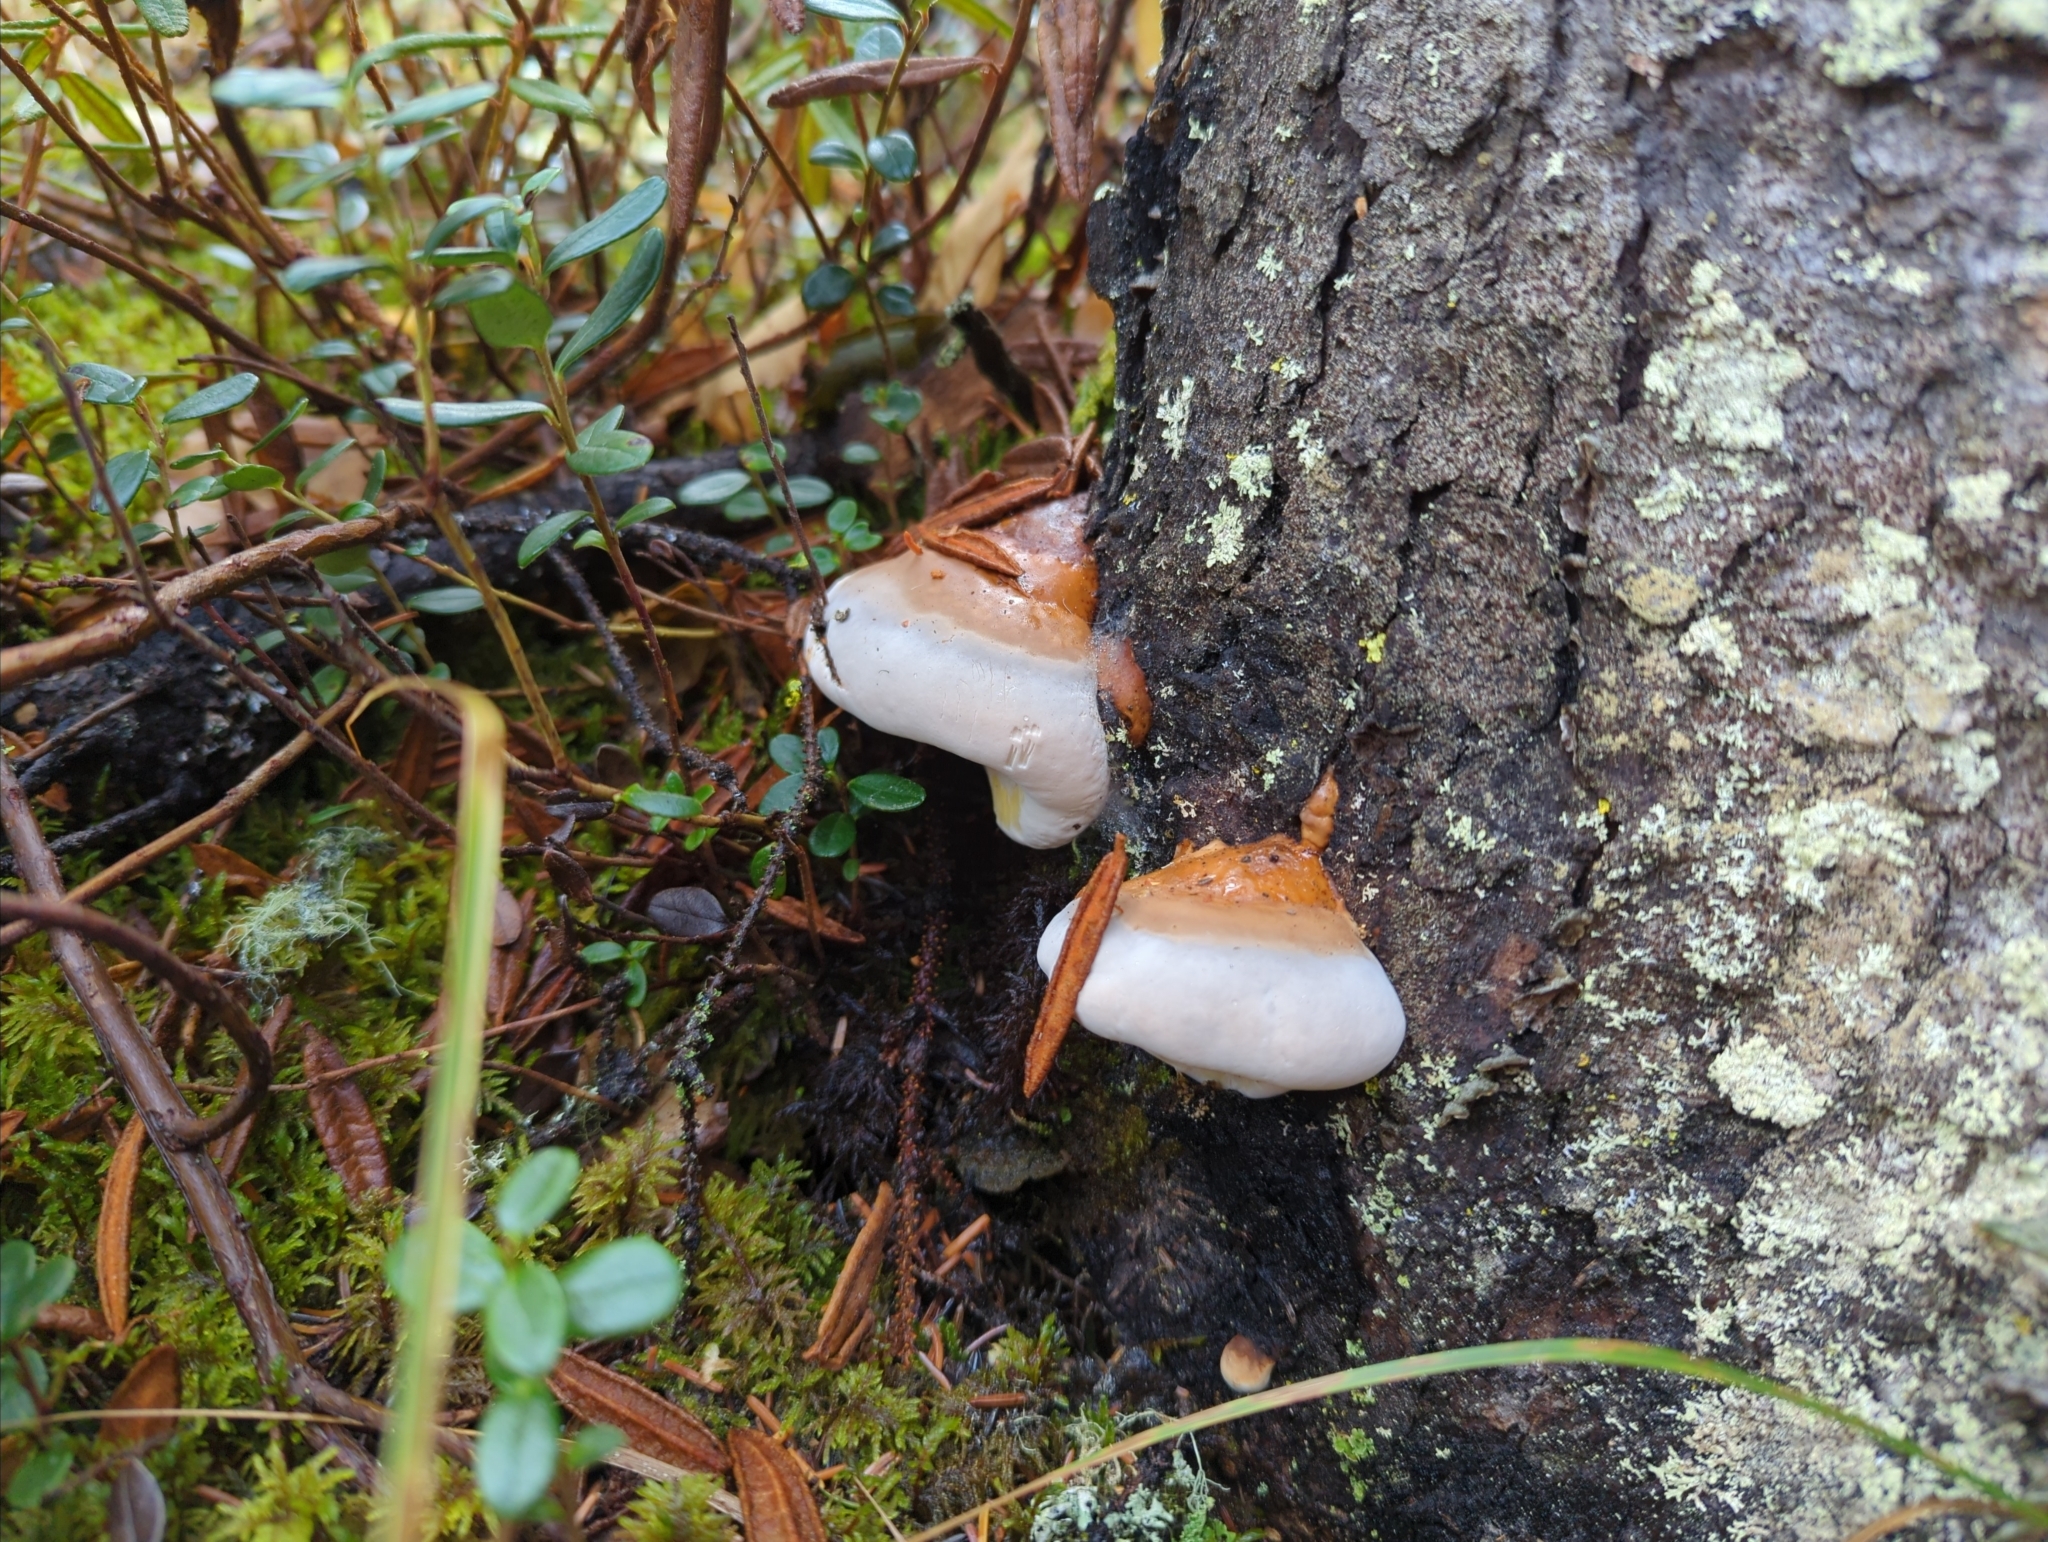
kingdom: Fungi
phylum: Basidiomycota
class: Agaricomycetes
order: Polyporales
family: Fomitopsidaceae
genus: Fomitopsis
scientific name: Fomitopsis mounceae
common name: Northern red belt
